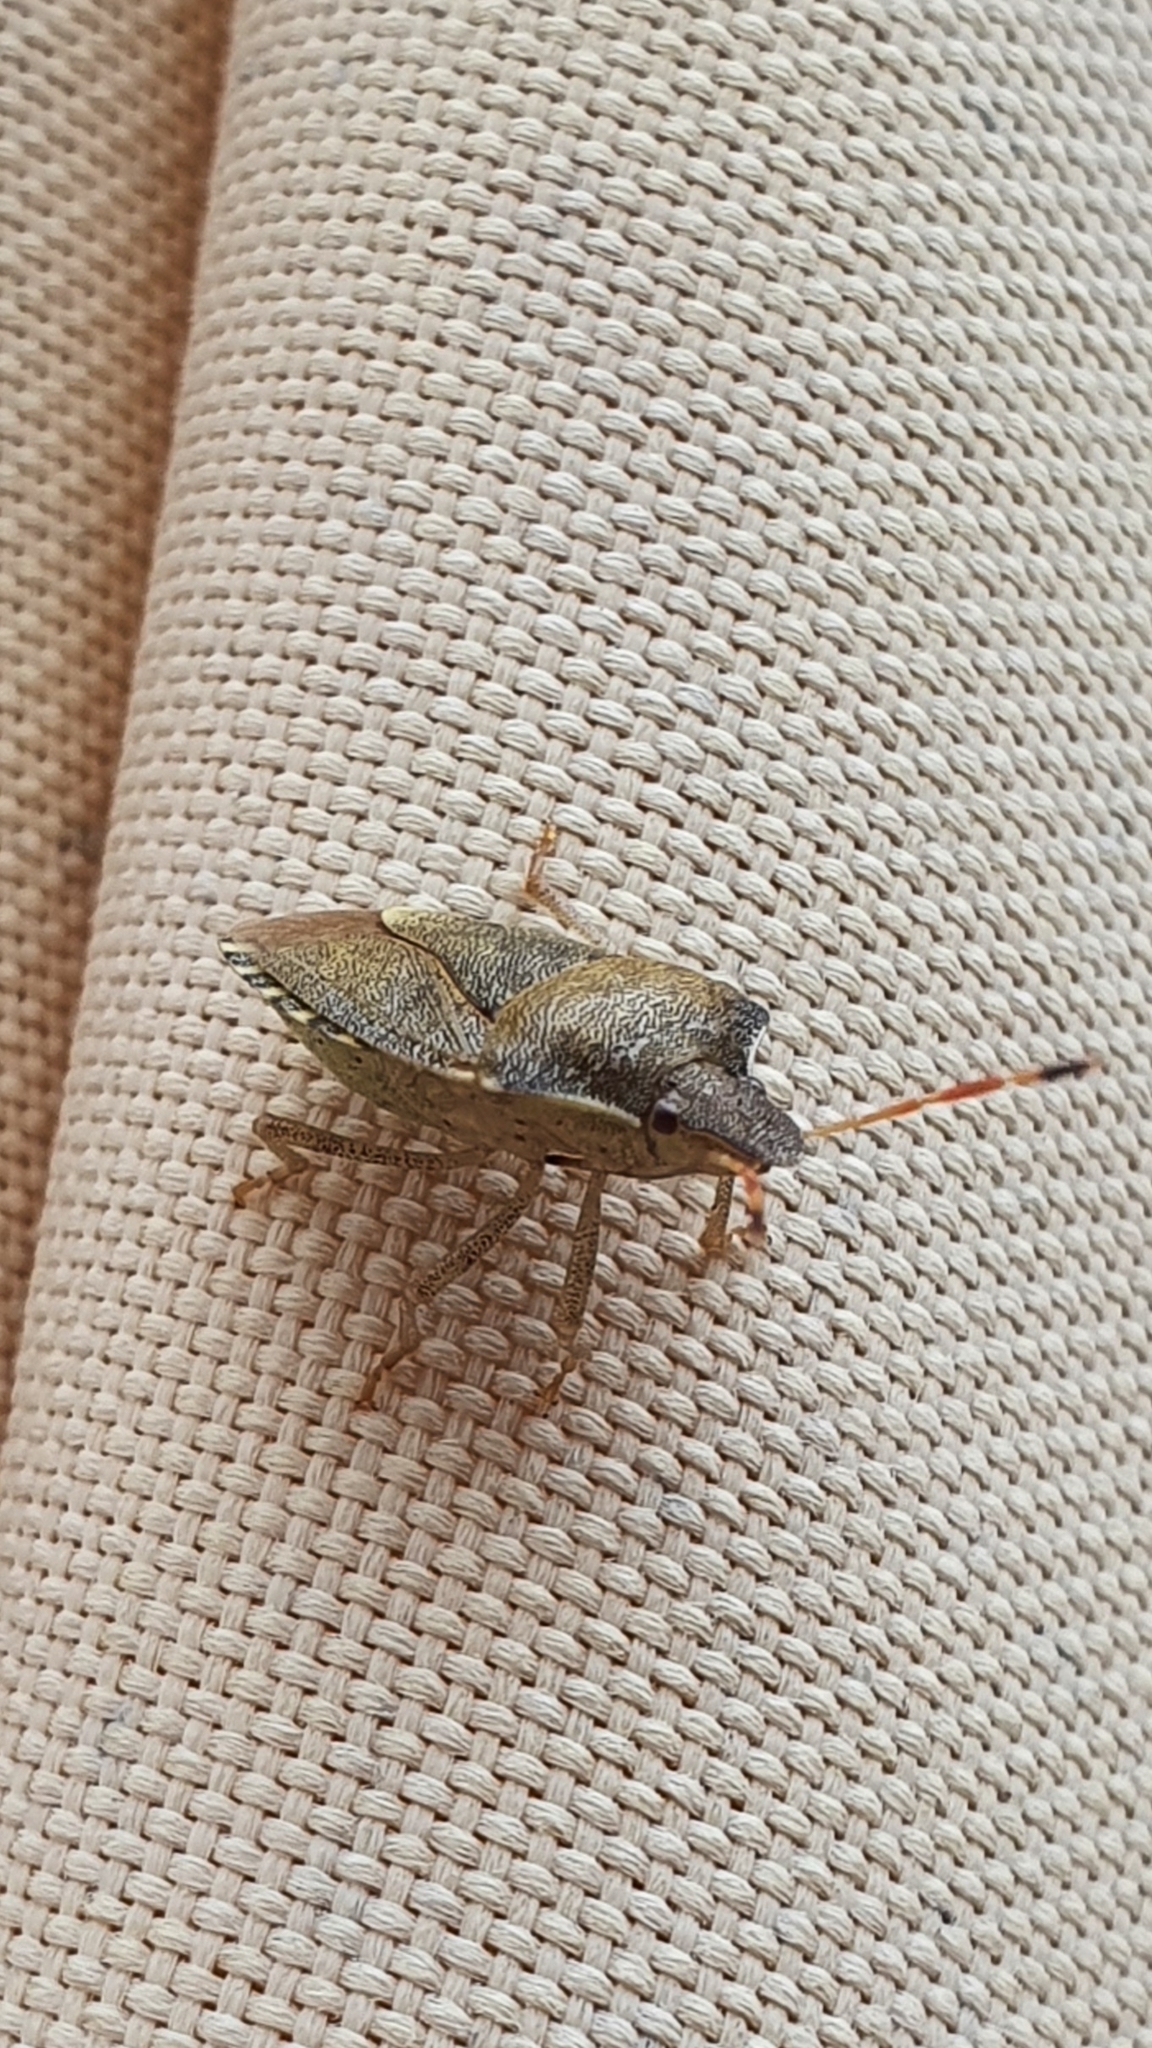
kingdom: Animalia
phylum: Arthropoda
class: Insecta
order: Hemiptera
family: Pentatomidae
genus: Holcostethus
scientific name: Holcostethus strictus
